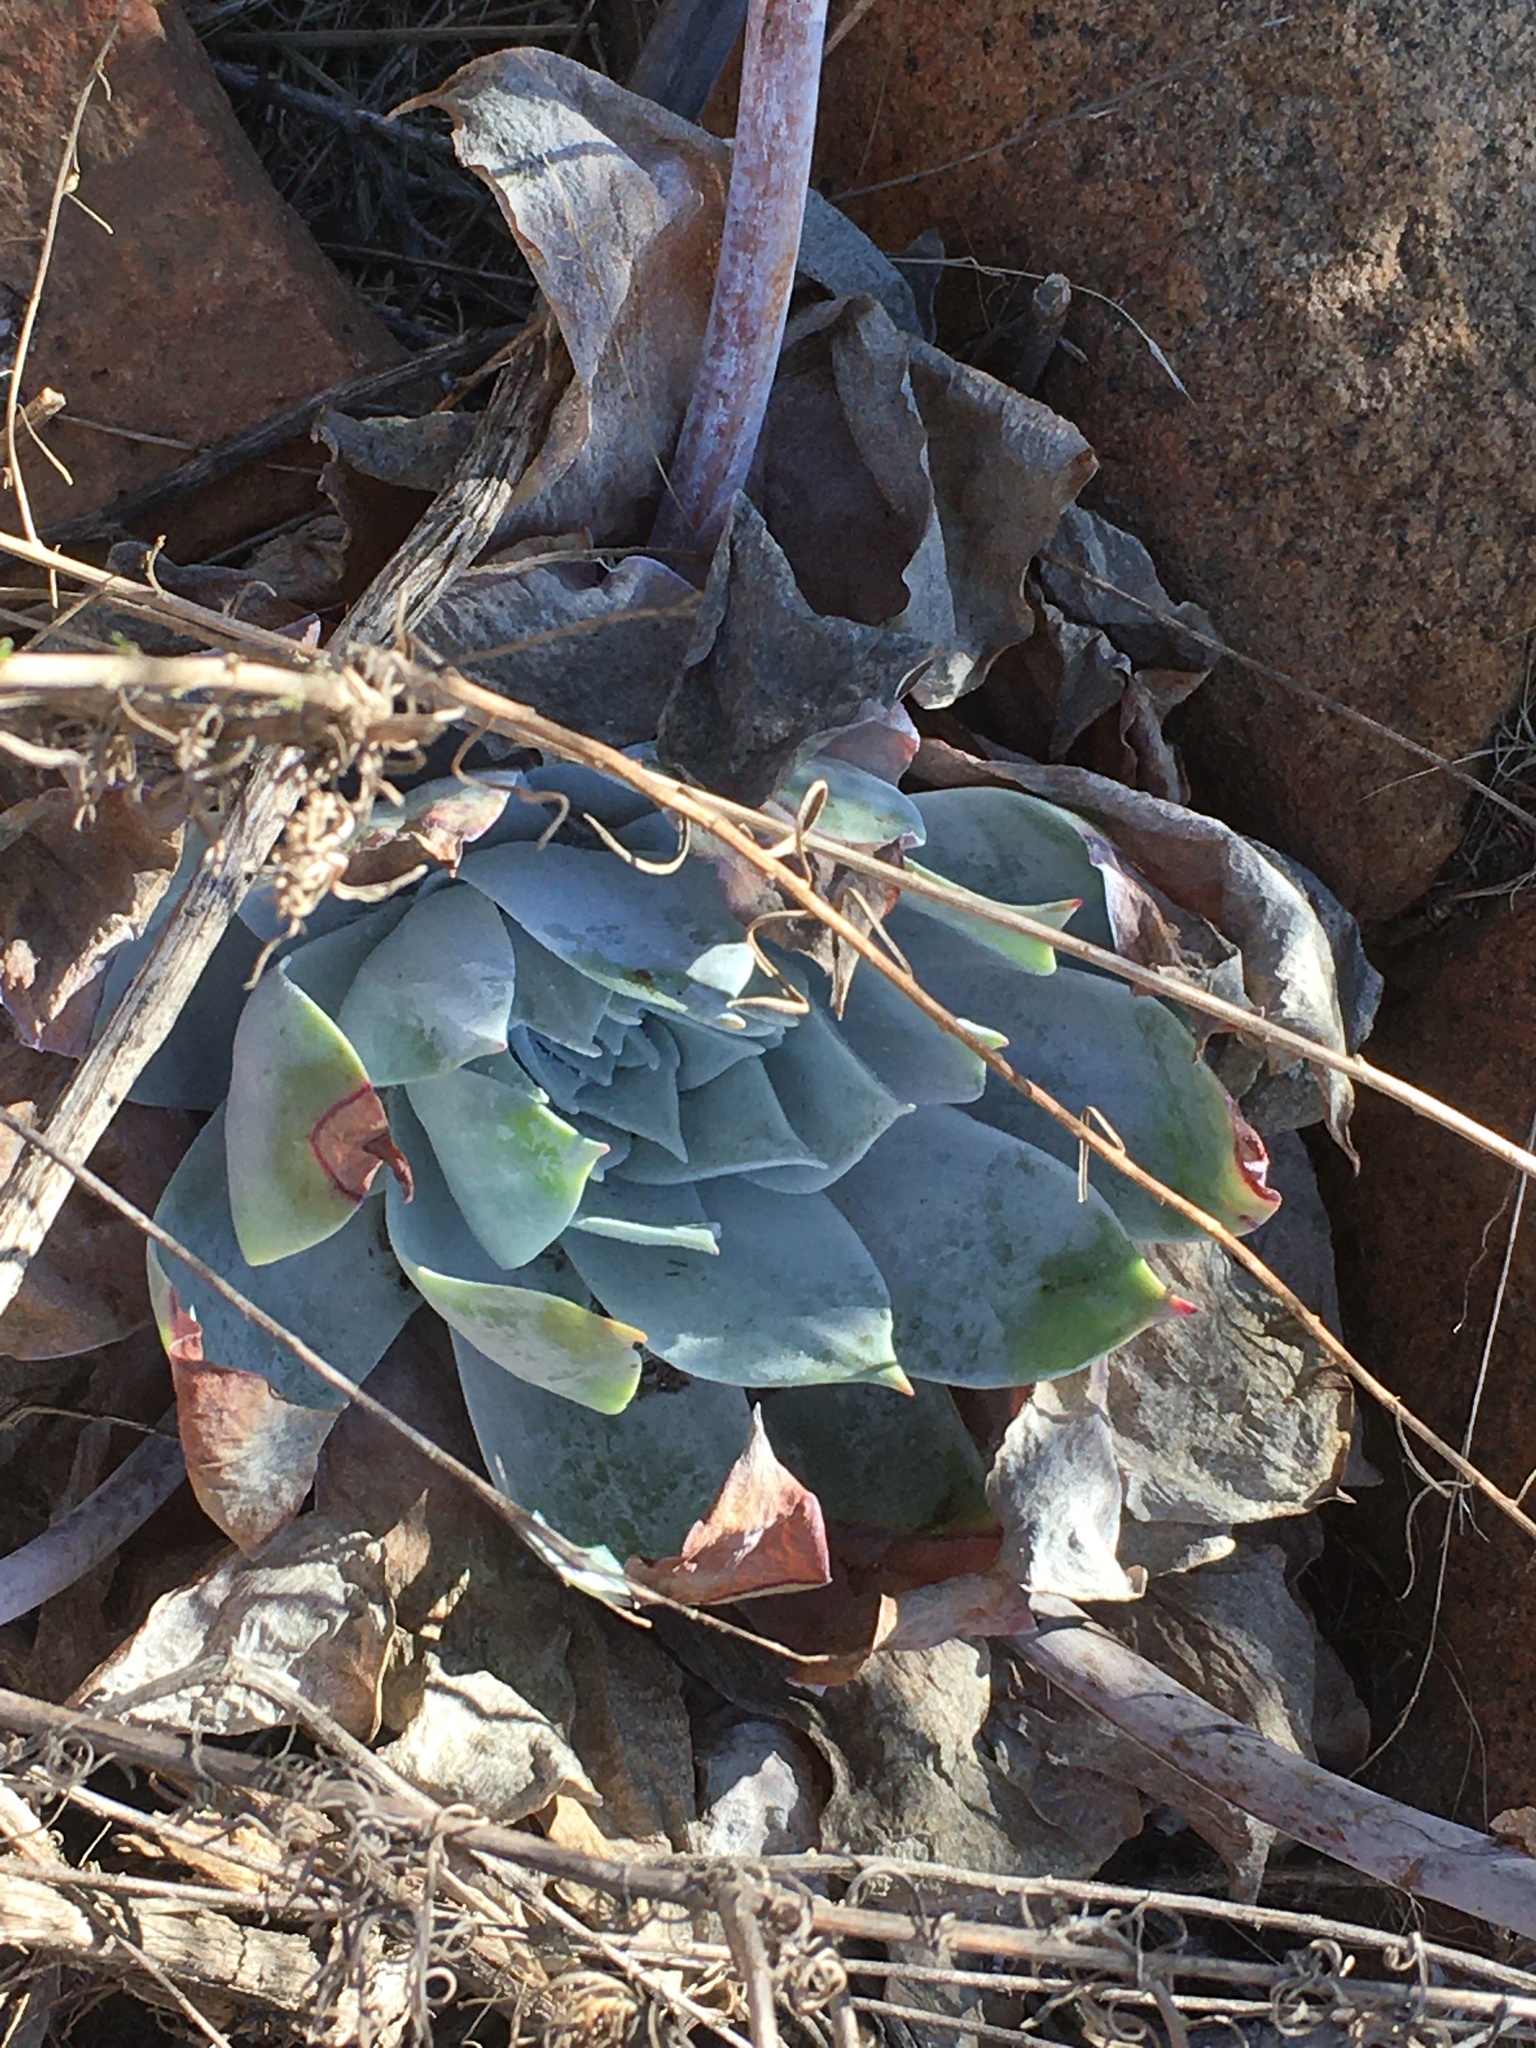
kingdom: Plantae
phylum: Tracheophyta
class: Magnoliopsida
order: Saxifragales
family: Crassulaceae
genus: Dudleya
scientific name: Dudleya pulverulenta
